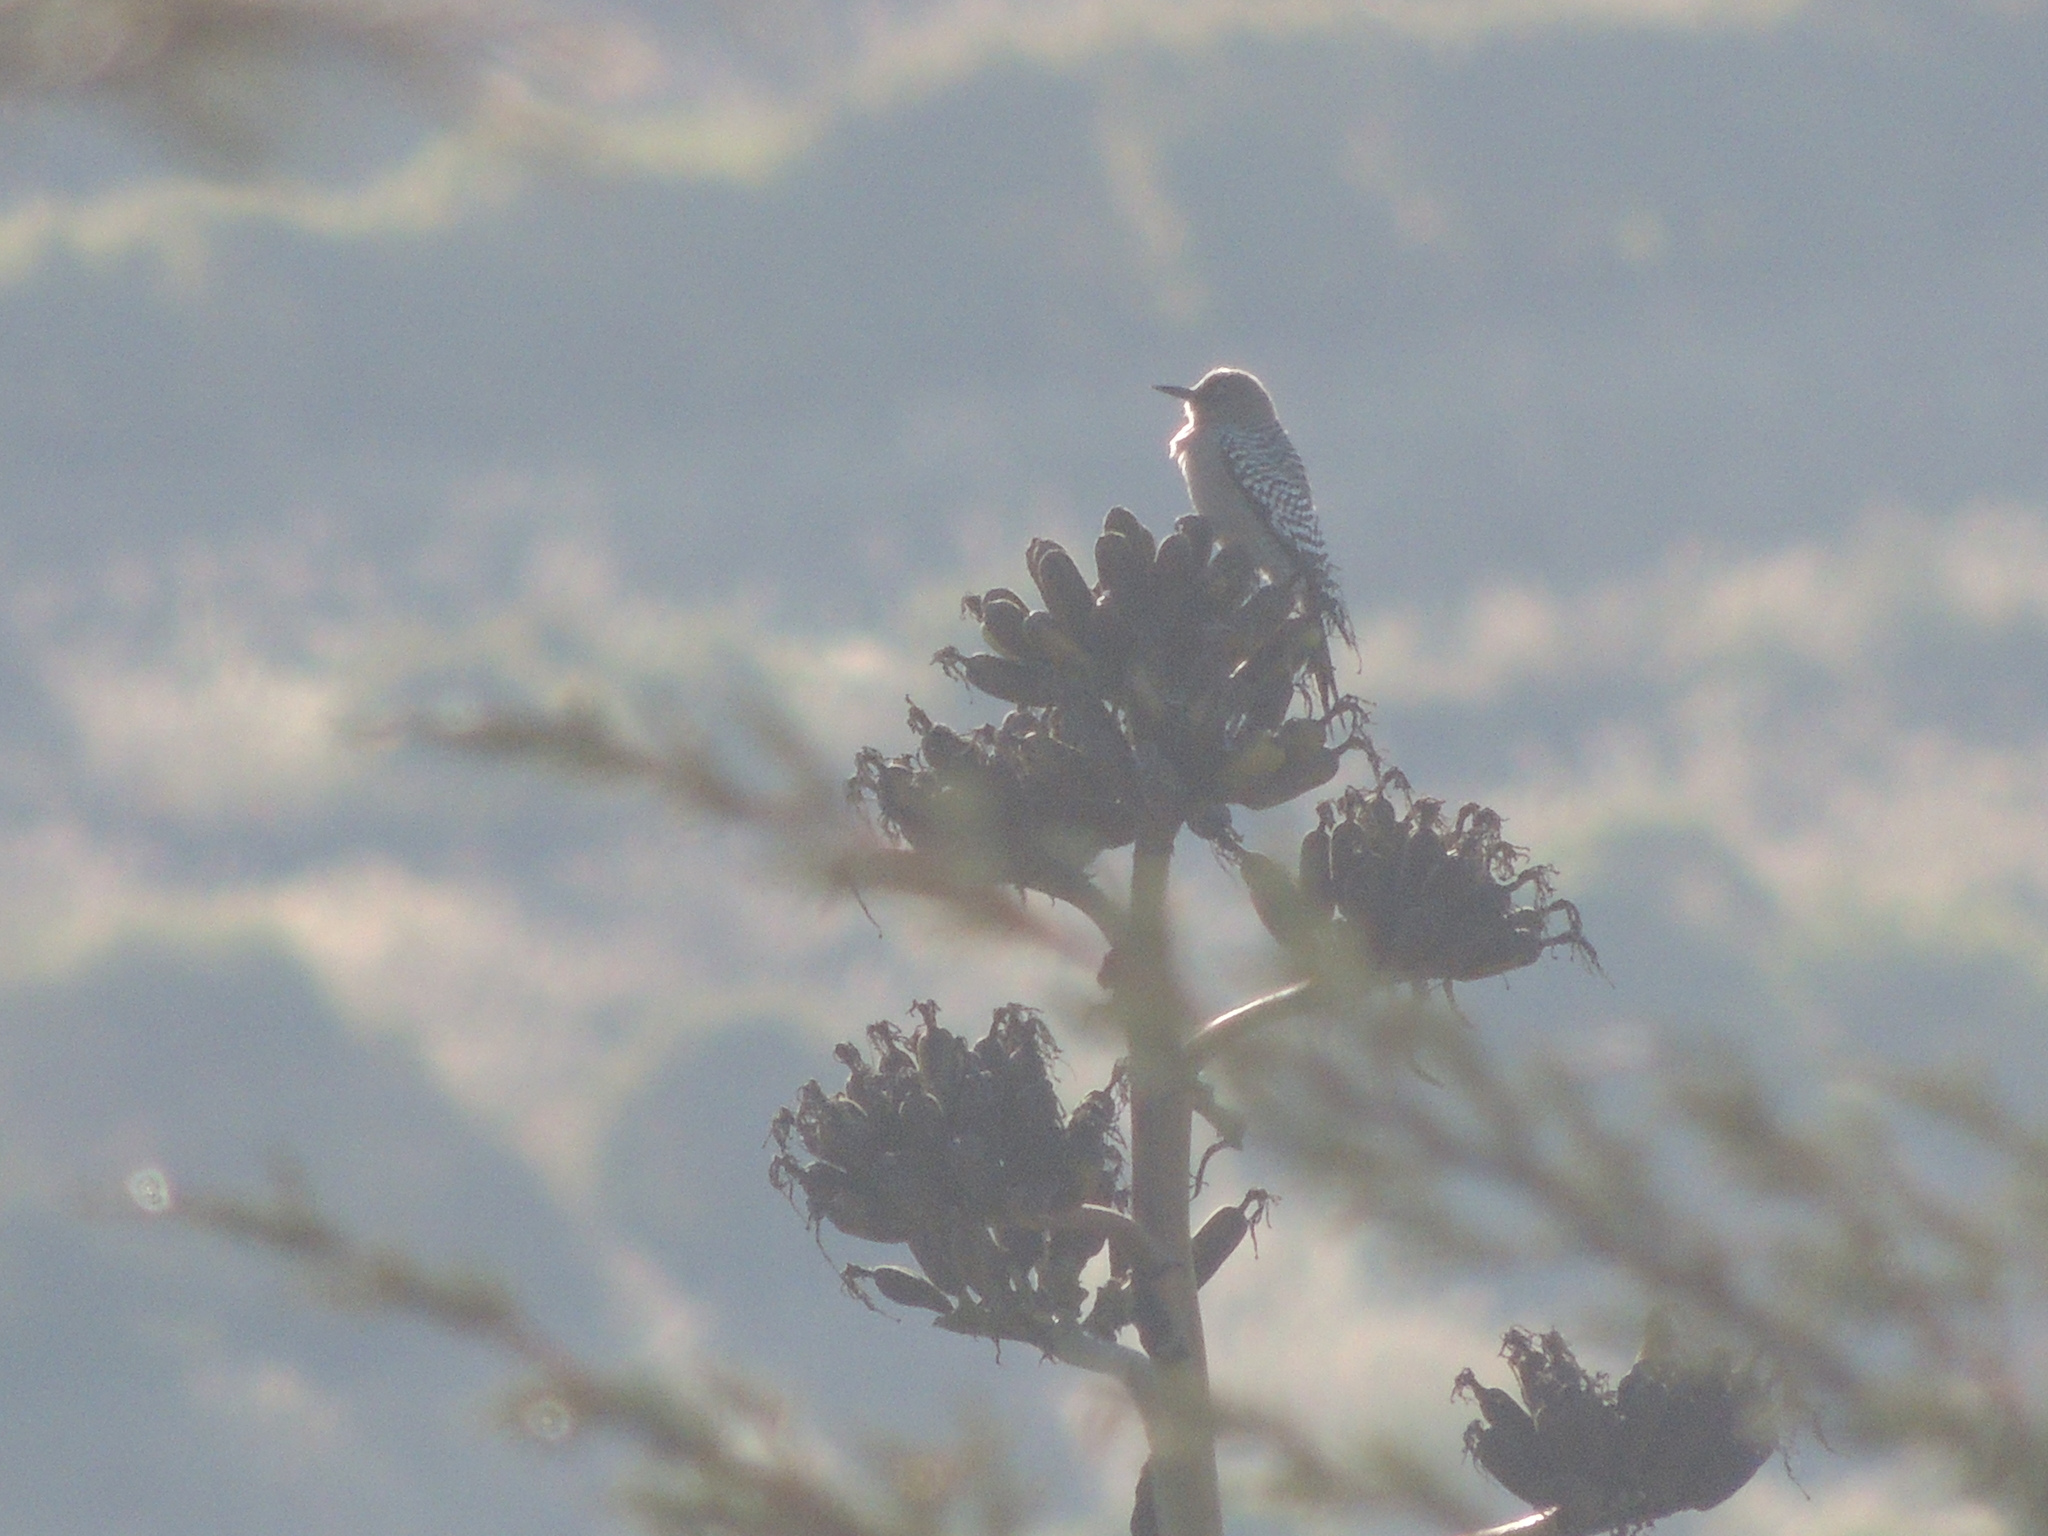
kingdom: Animalia
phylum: Chordata
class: Aves
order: Piciformes
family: Picidae
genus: Melanerpes
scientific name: Melanerpes hypopolius
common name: Grey-breasted woodpecker
